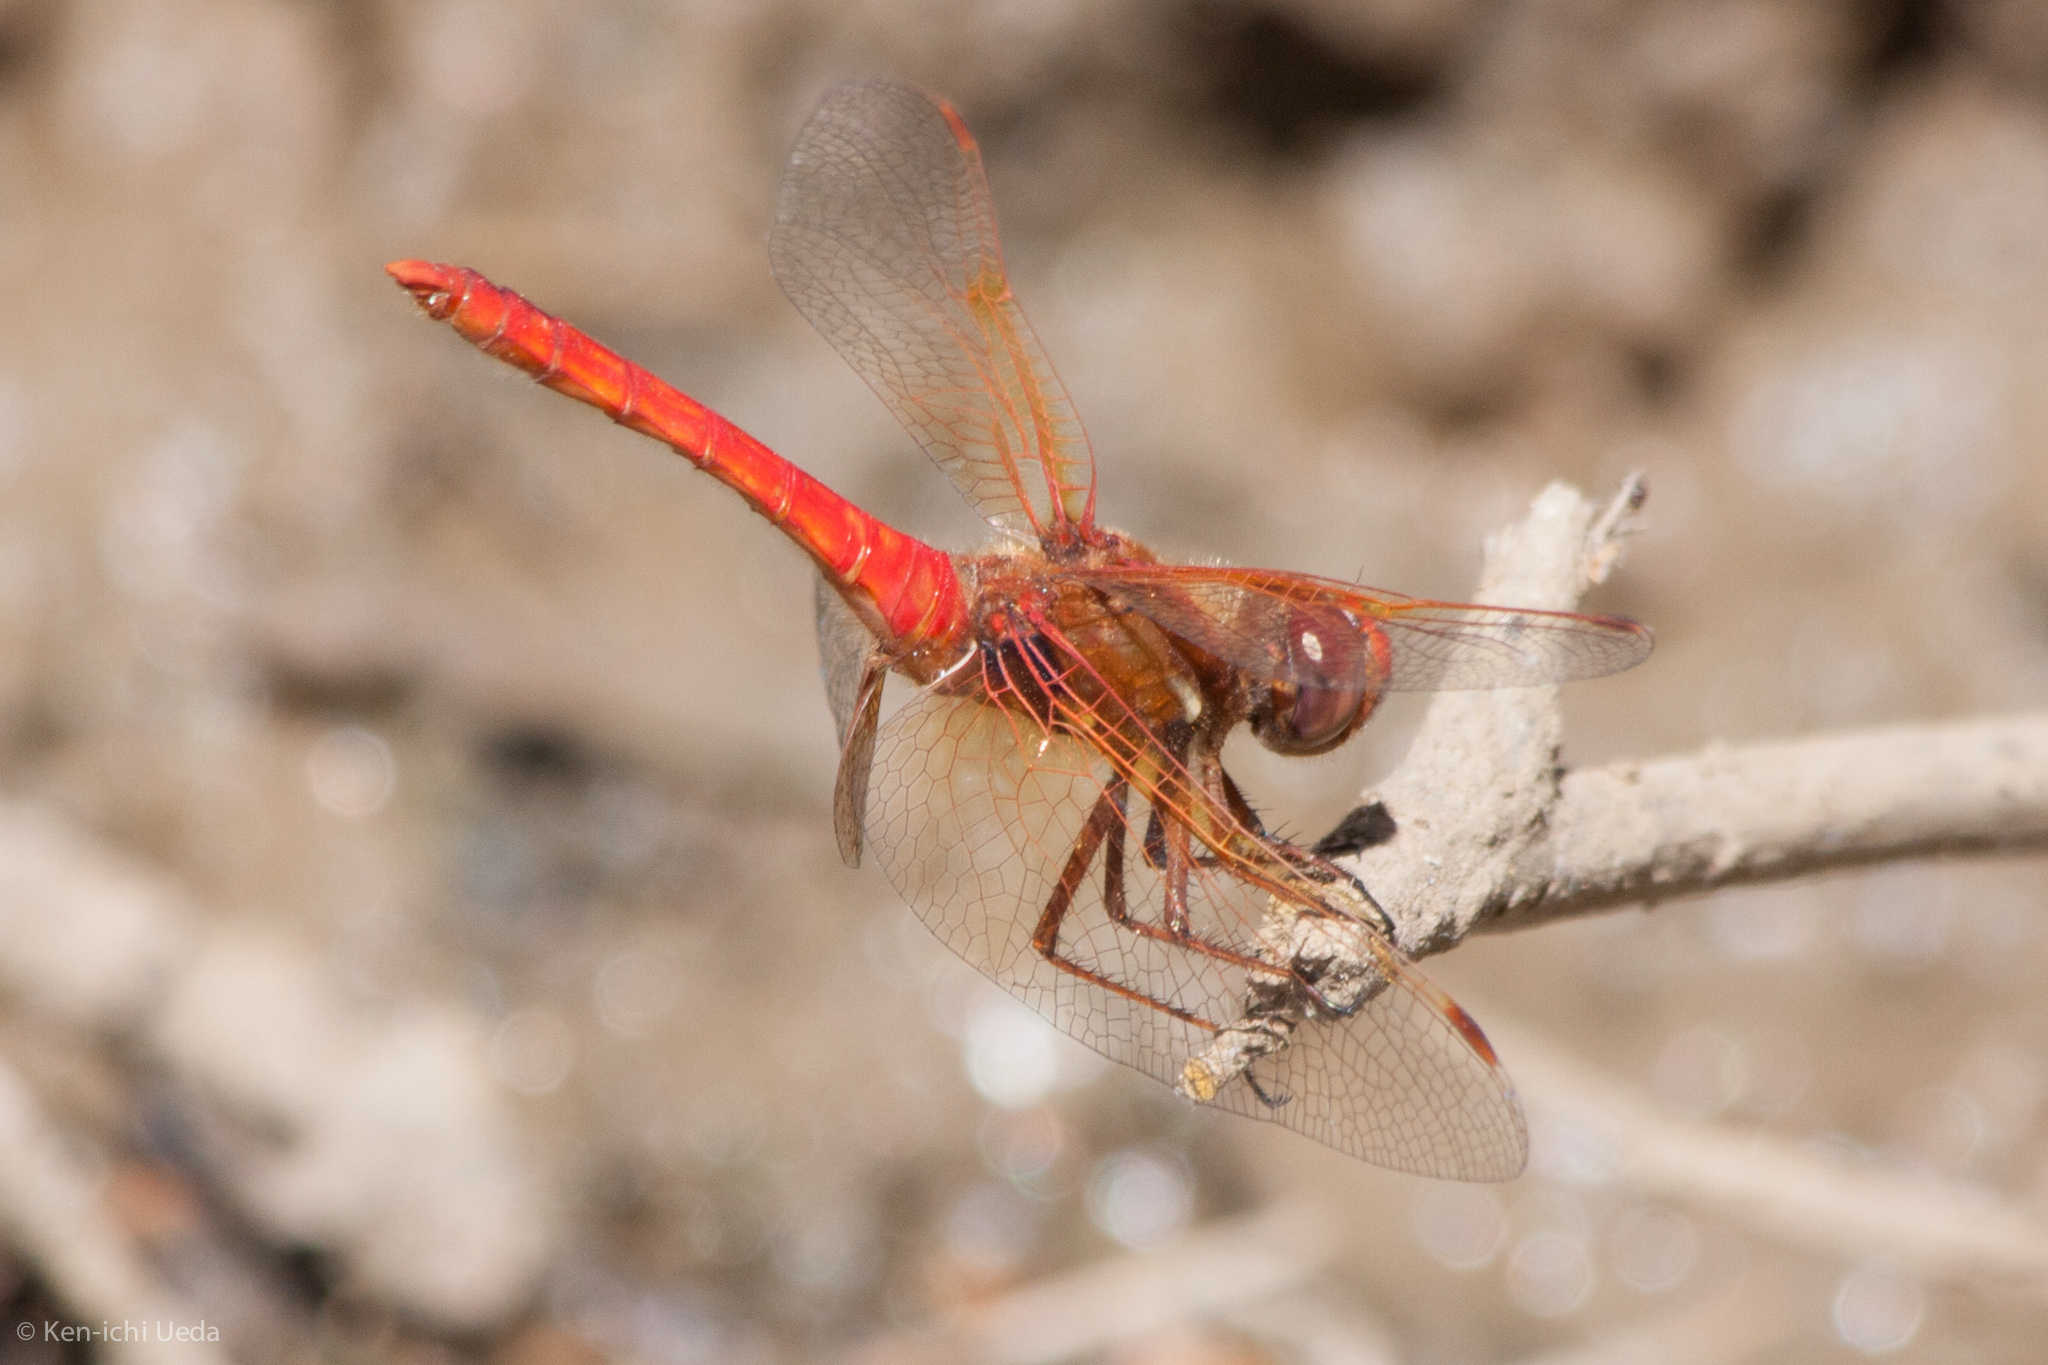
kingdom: Animalia
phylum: Arthropoda
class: Insecta
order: Odonata
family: Libellulidae
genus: Sympetrum
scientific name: Sympetrum illotum
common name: Cardinal meadowhawk
